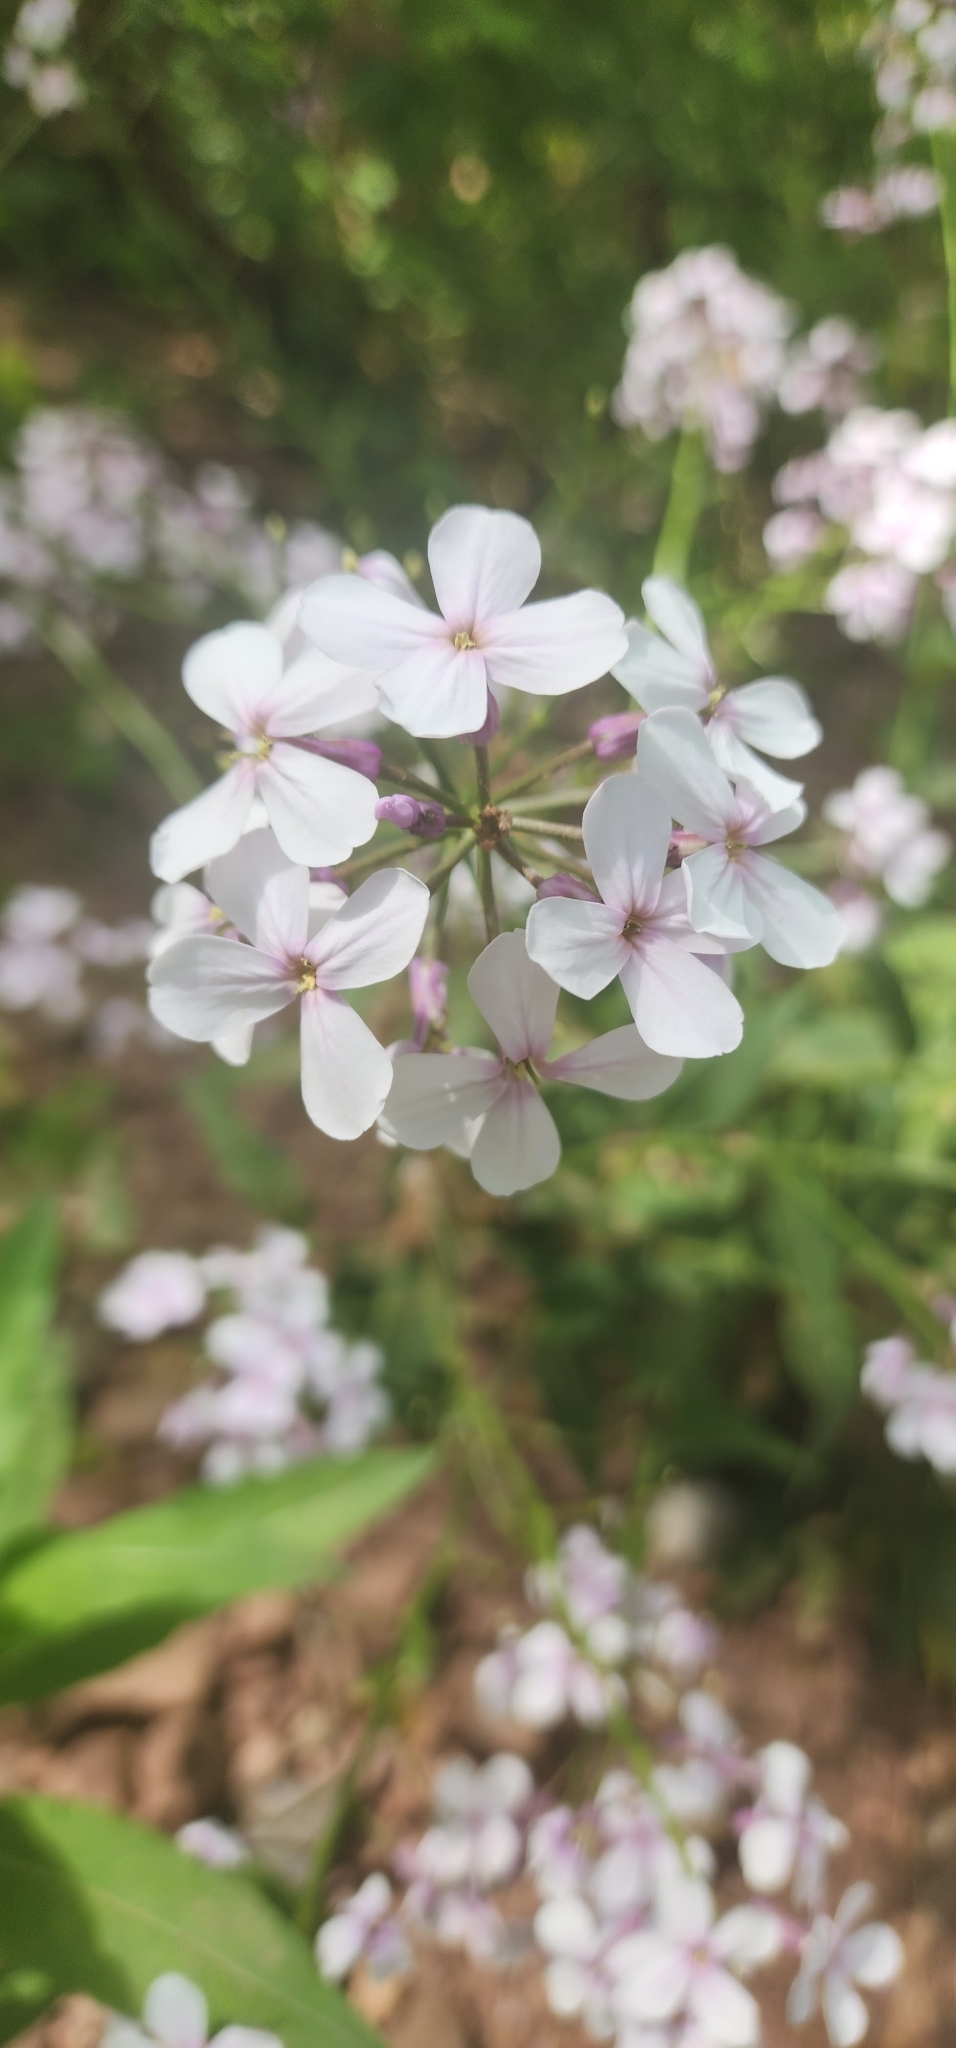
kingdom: Plantae
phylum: Tracheophyta
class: Magnoliopsida
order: Brassicales
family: Brassicaceae
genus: Hesperis
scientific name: Hesperis matronalis
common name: Dame's-violet
